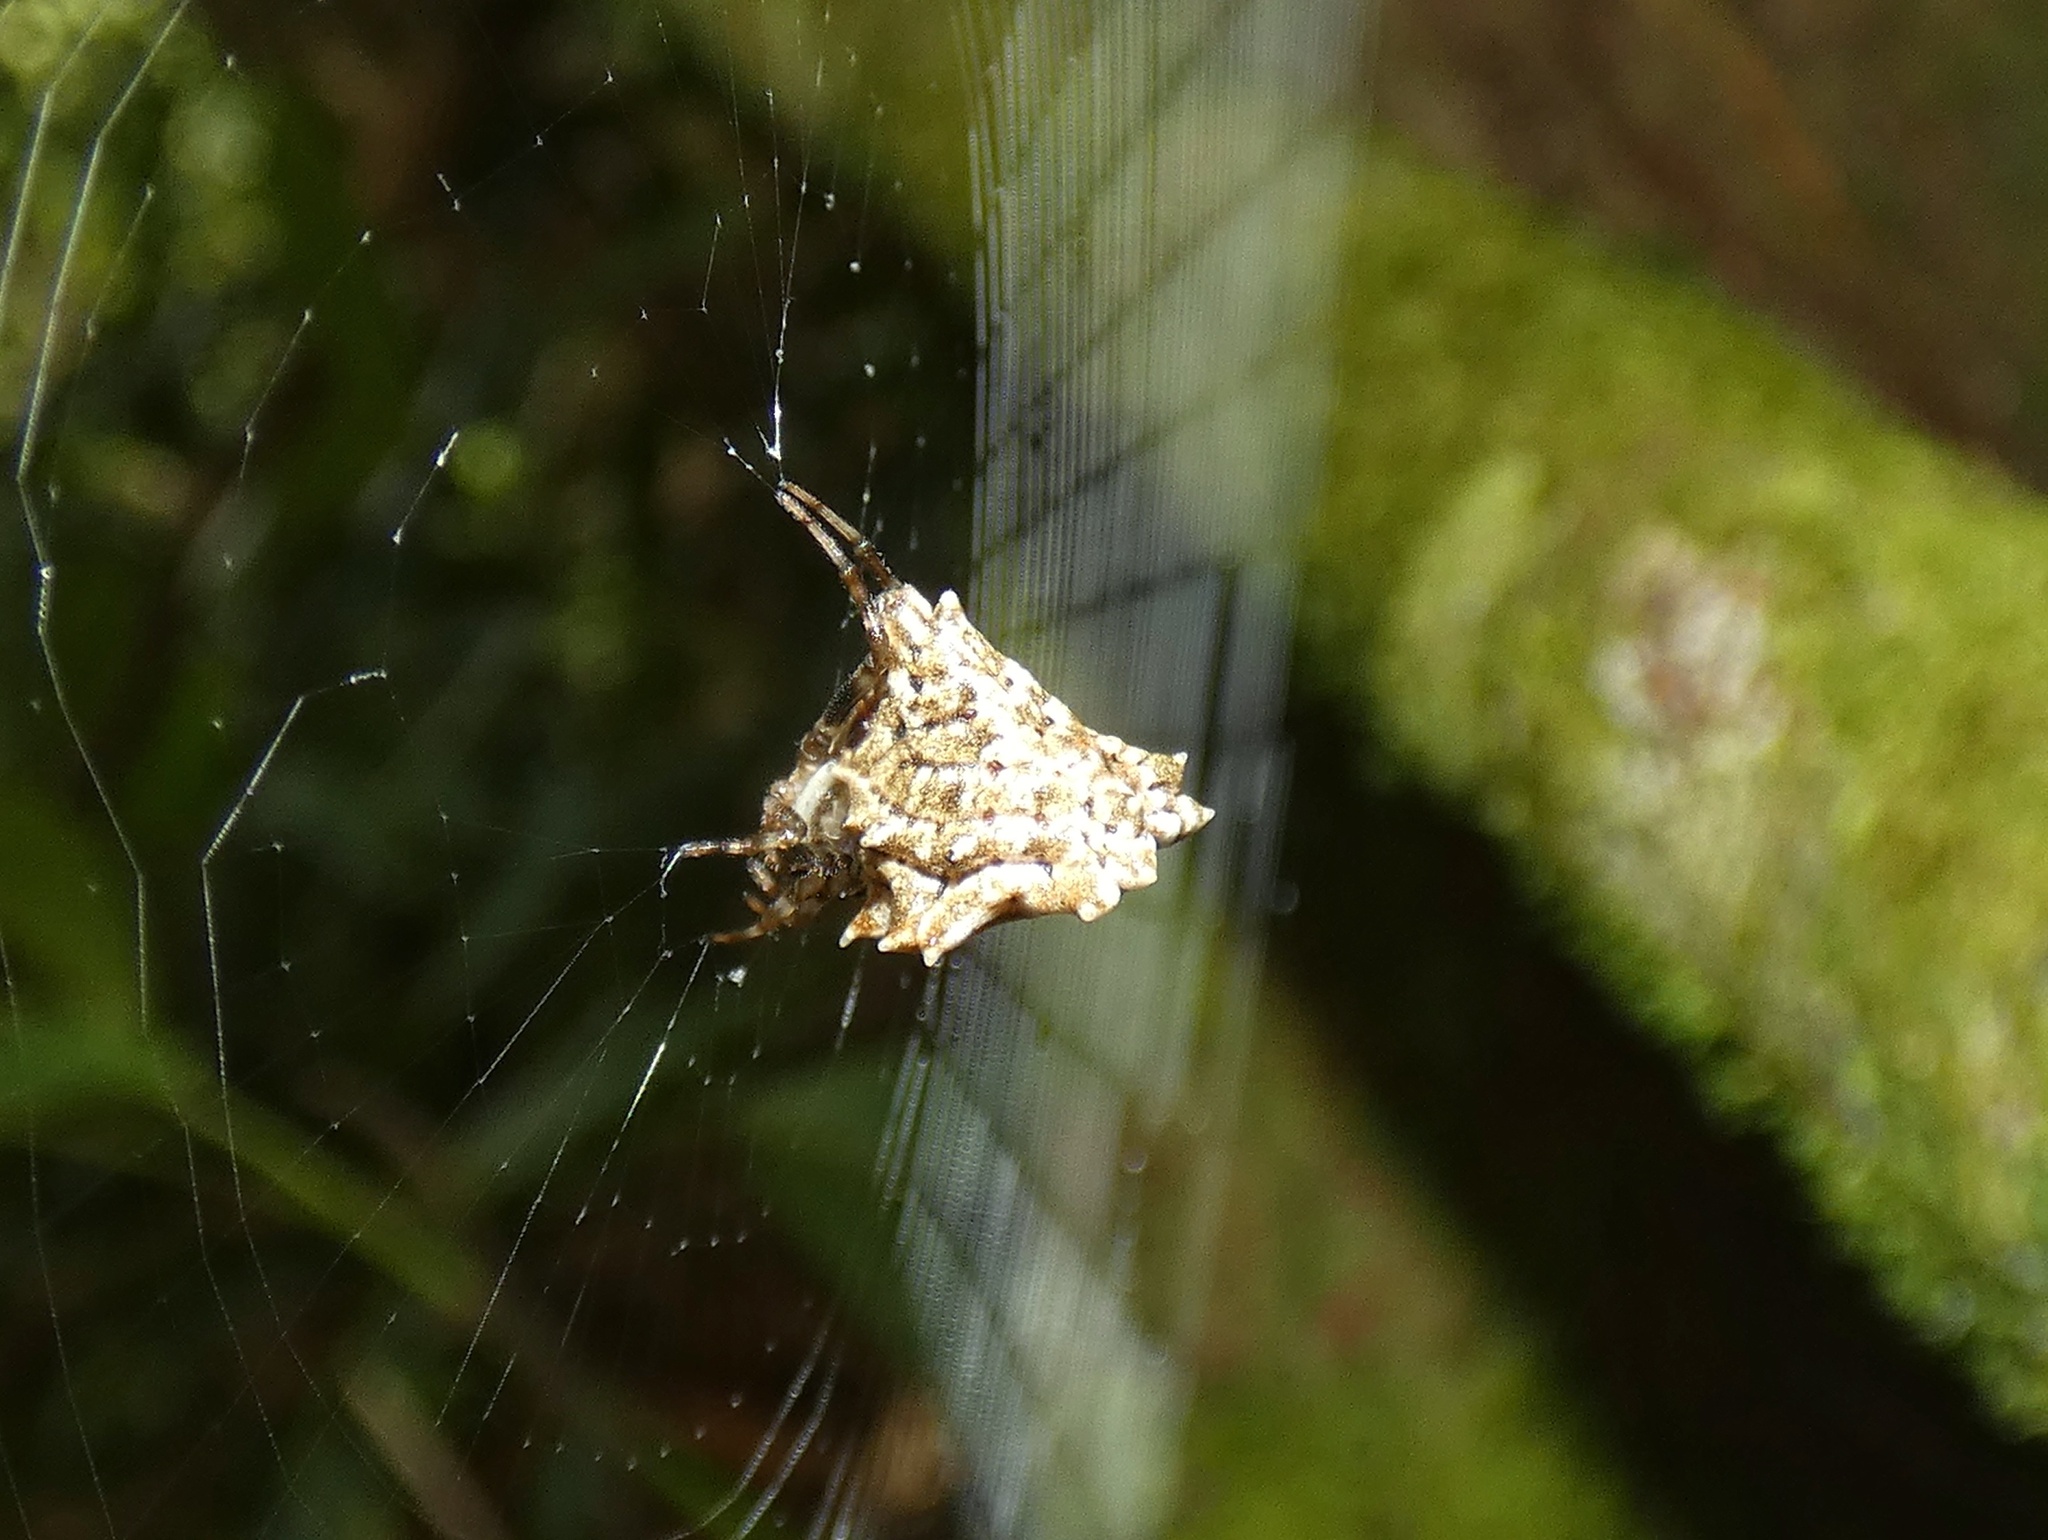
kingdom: Animalia
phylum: Arthropoda
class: Arachnida
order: Araneae
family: Araneidae
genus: Micrathena
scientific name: Micrathena horrida
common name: Orb weavers
